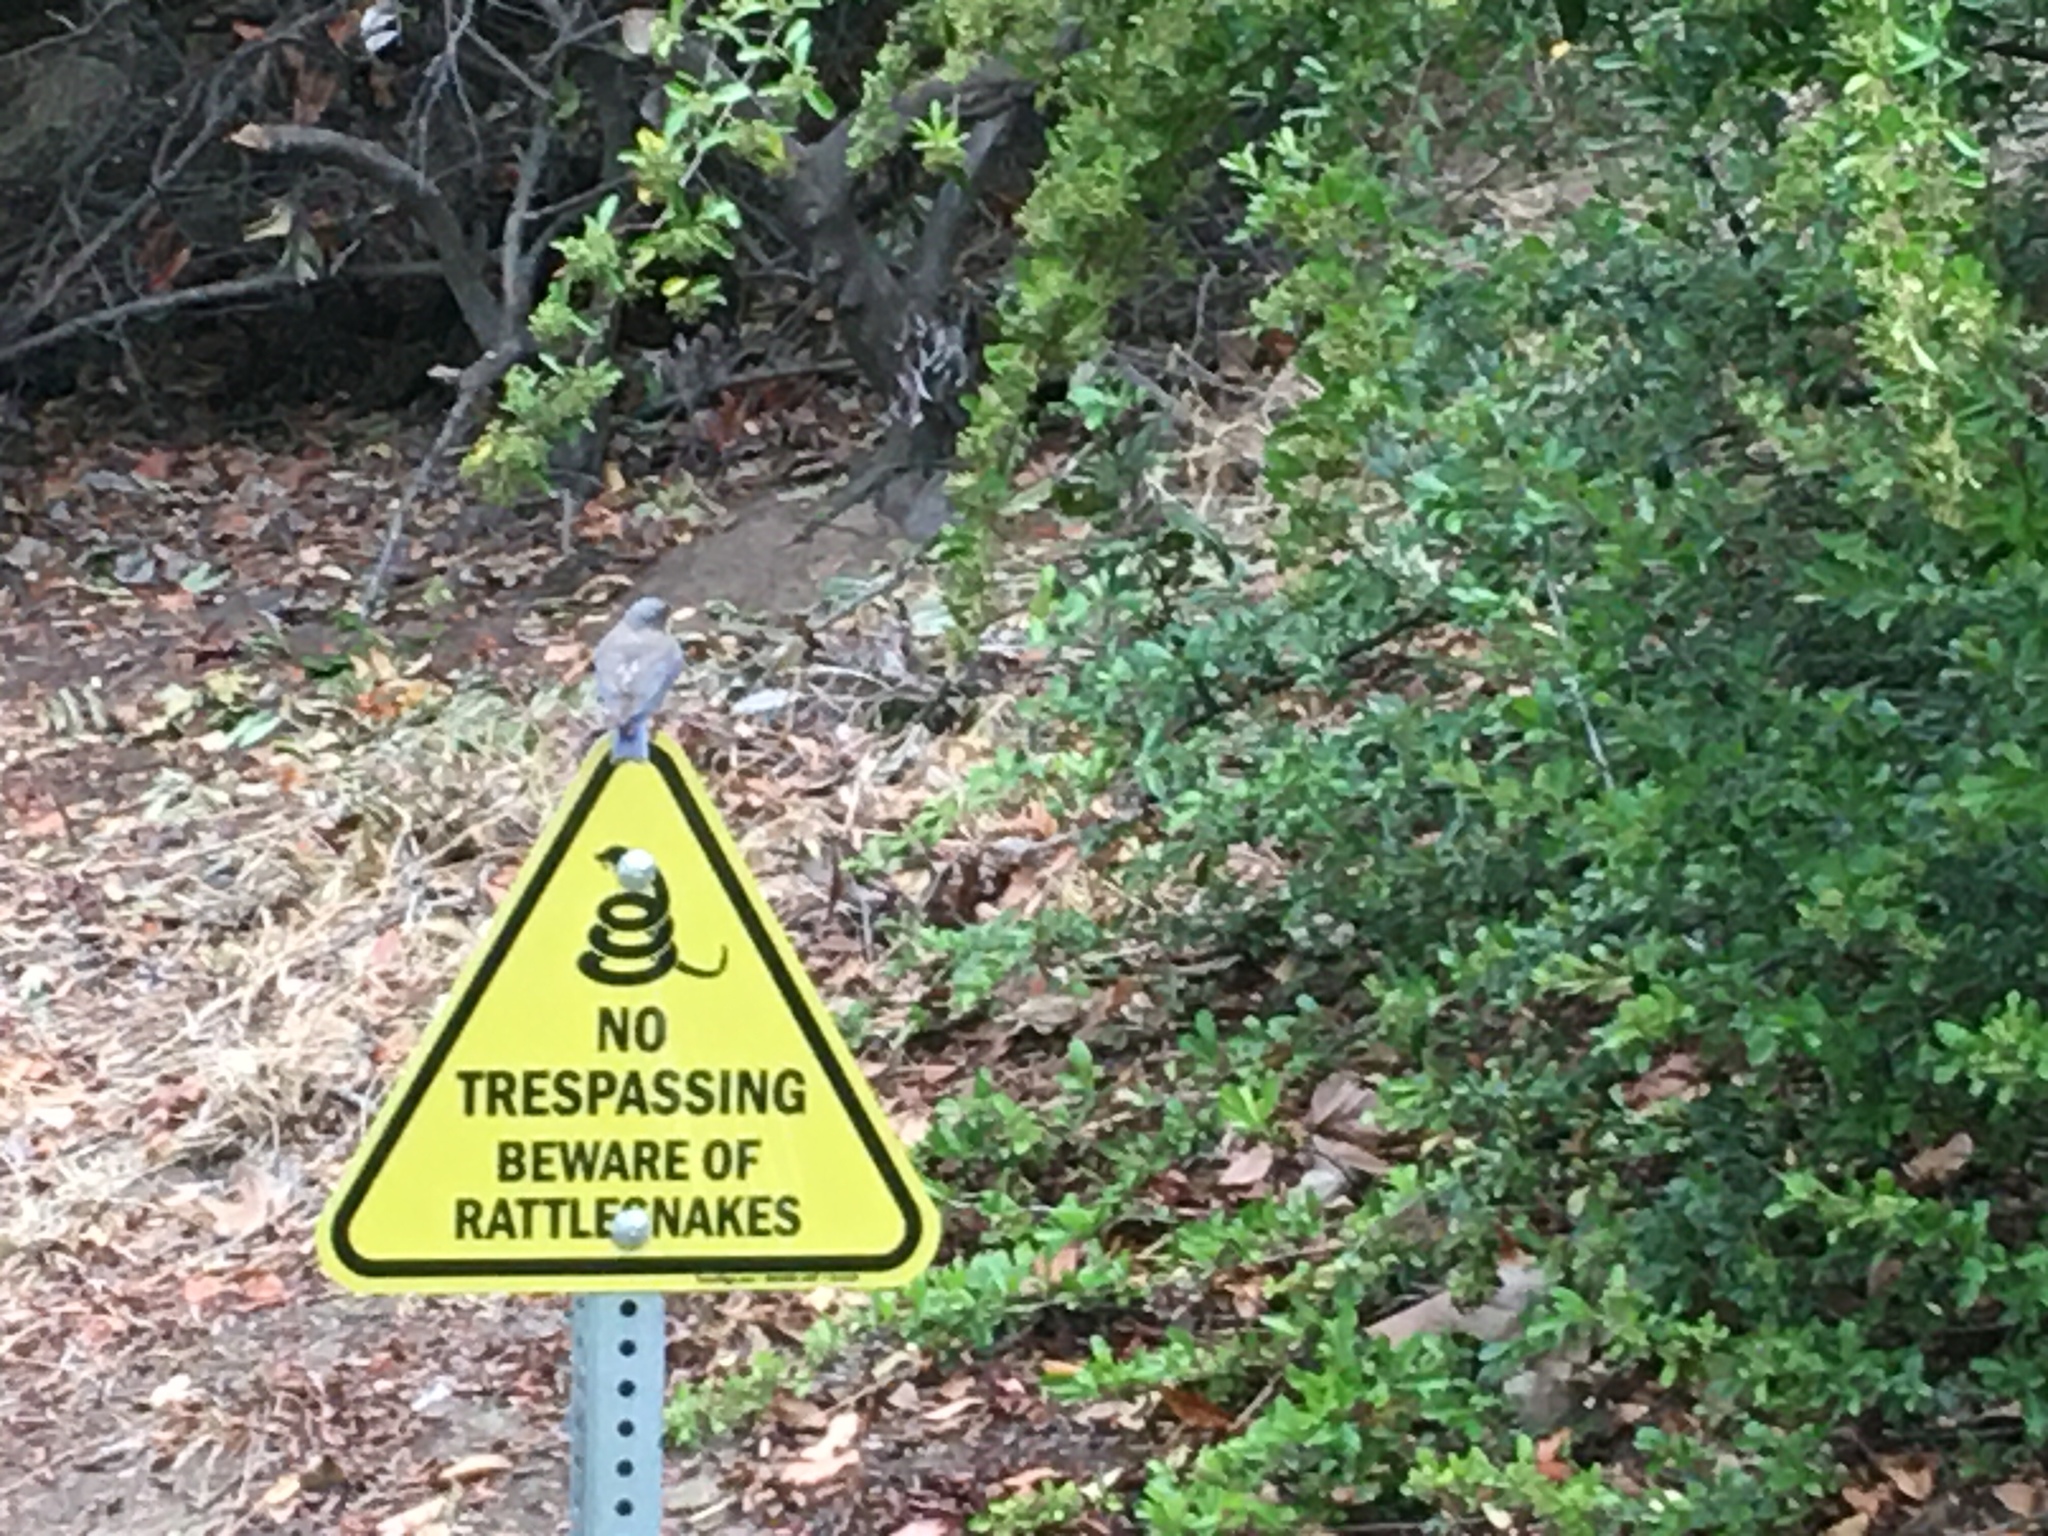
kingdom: Animalia
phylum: Chordata
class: Aves
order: Passeriformes
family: Turdidae
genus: Sialia
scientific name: Sialia mexicana
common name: Western bluebird
